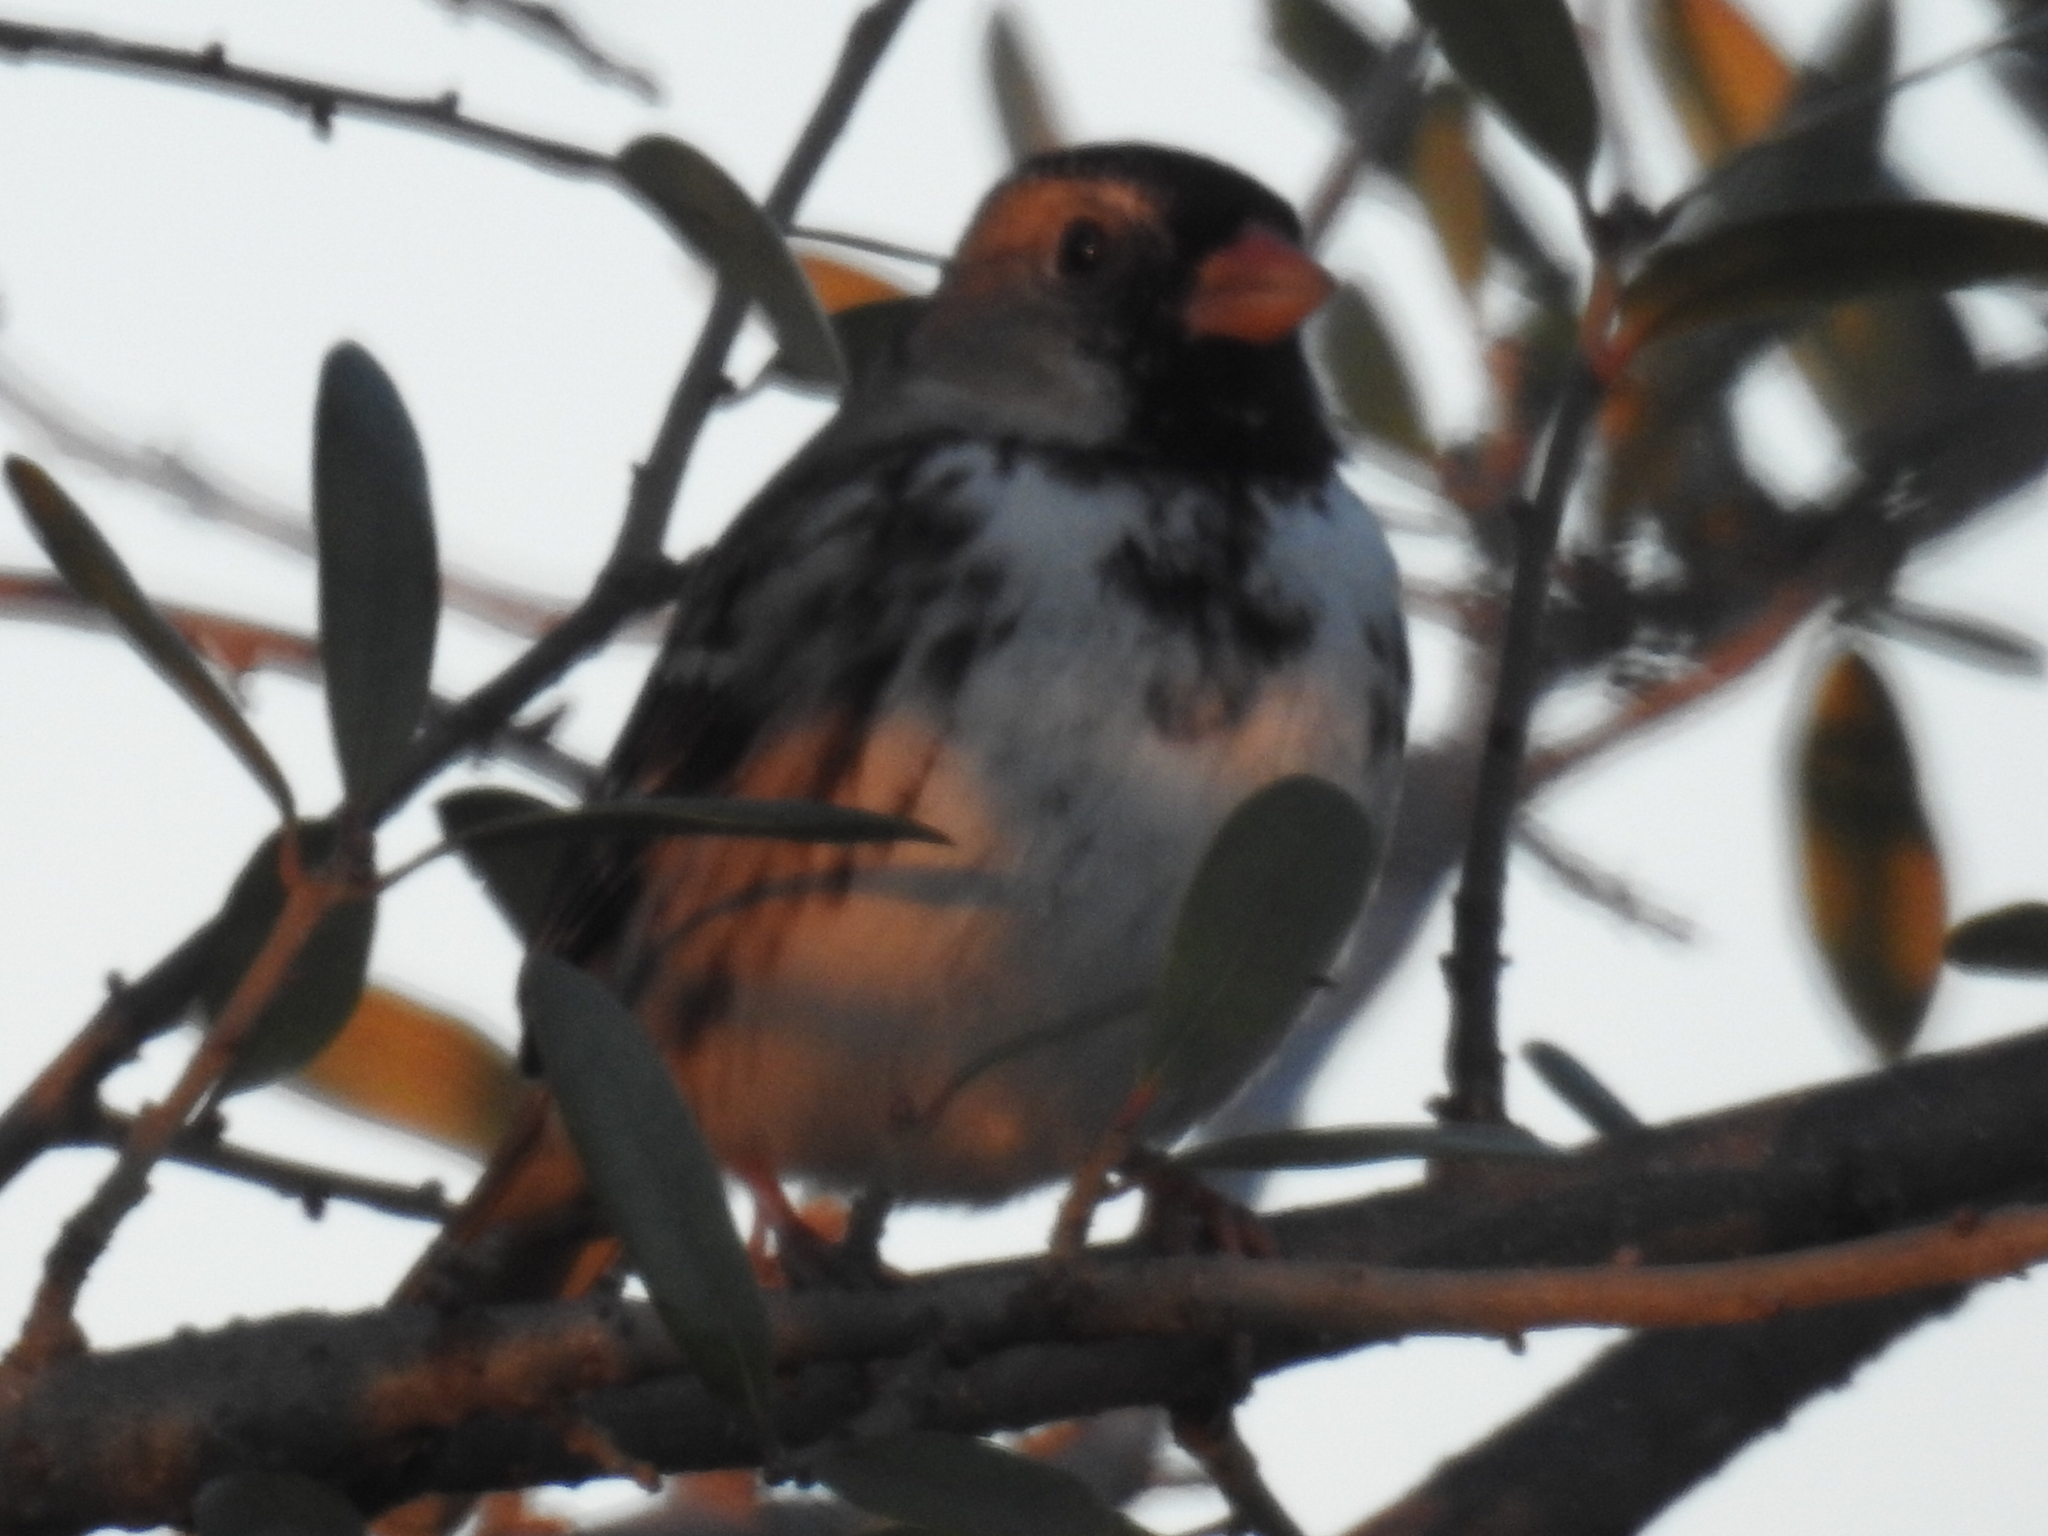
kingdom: Animalia
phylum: Chordata
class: Aves
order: Passeriformes
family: Passerellidae
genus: Zonotrichia
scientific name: Zonotrichia querula
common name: Harris's sparrow
